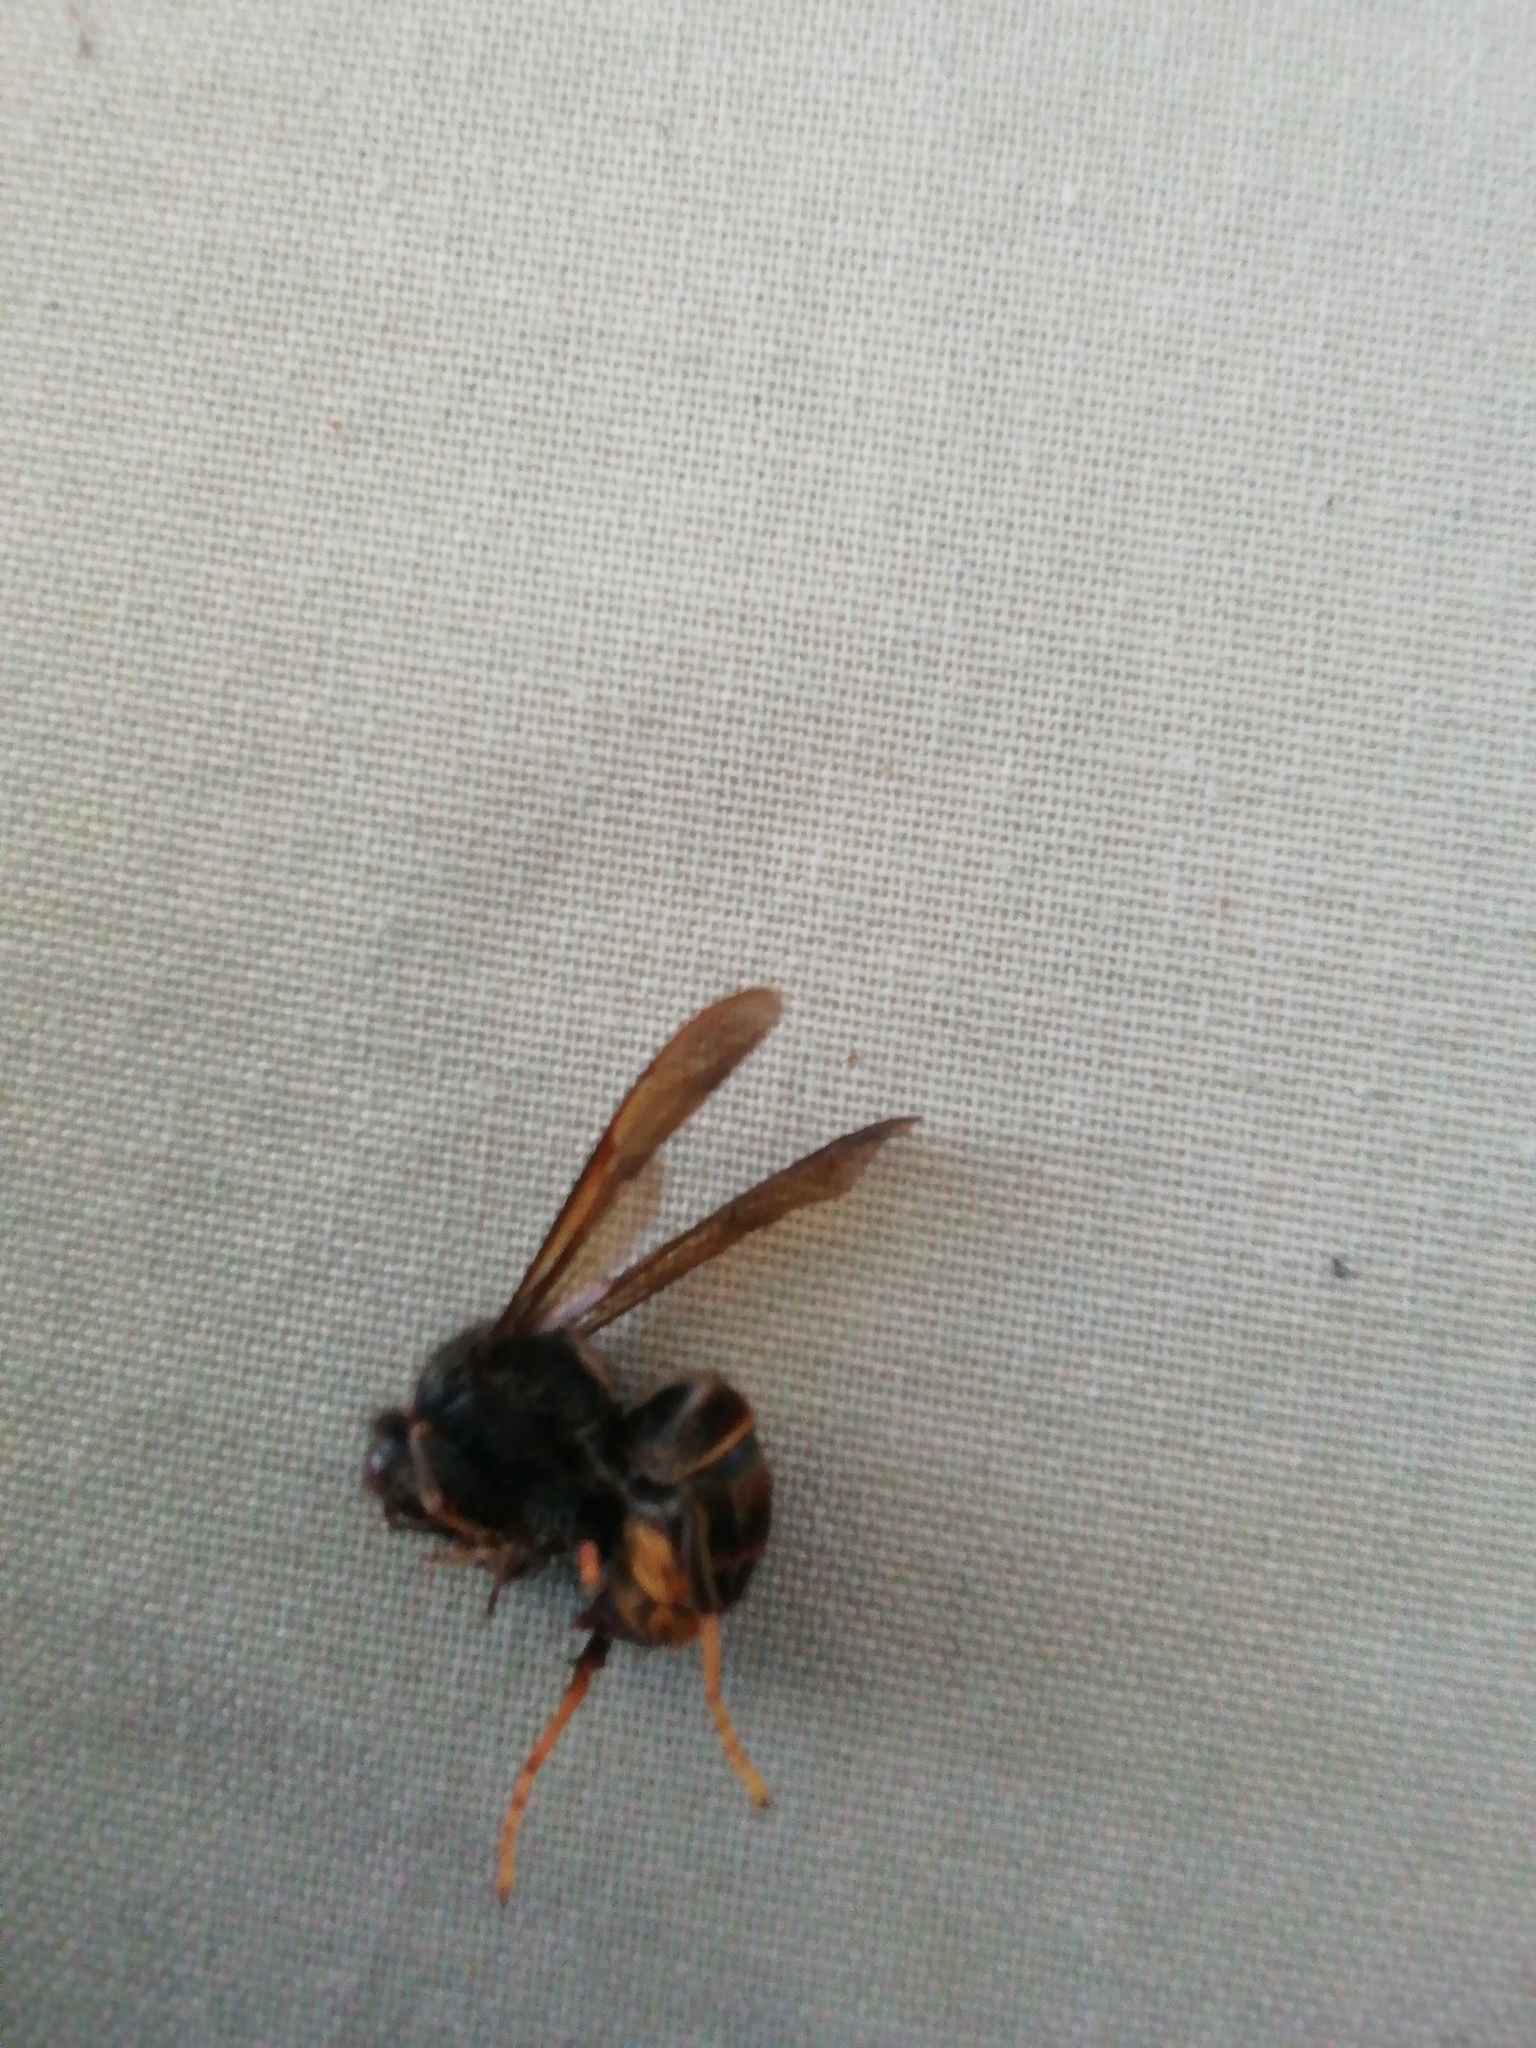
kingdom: Animalia
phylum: Arthropoda
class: Insecta
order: Hymenoptera
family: Vespidae
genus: Vespa
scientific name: Vespa velutina
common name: Asian hornet
